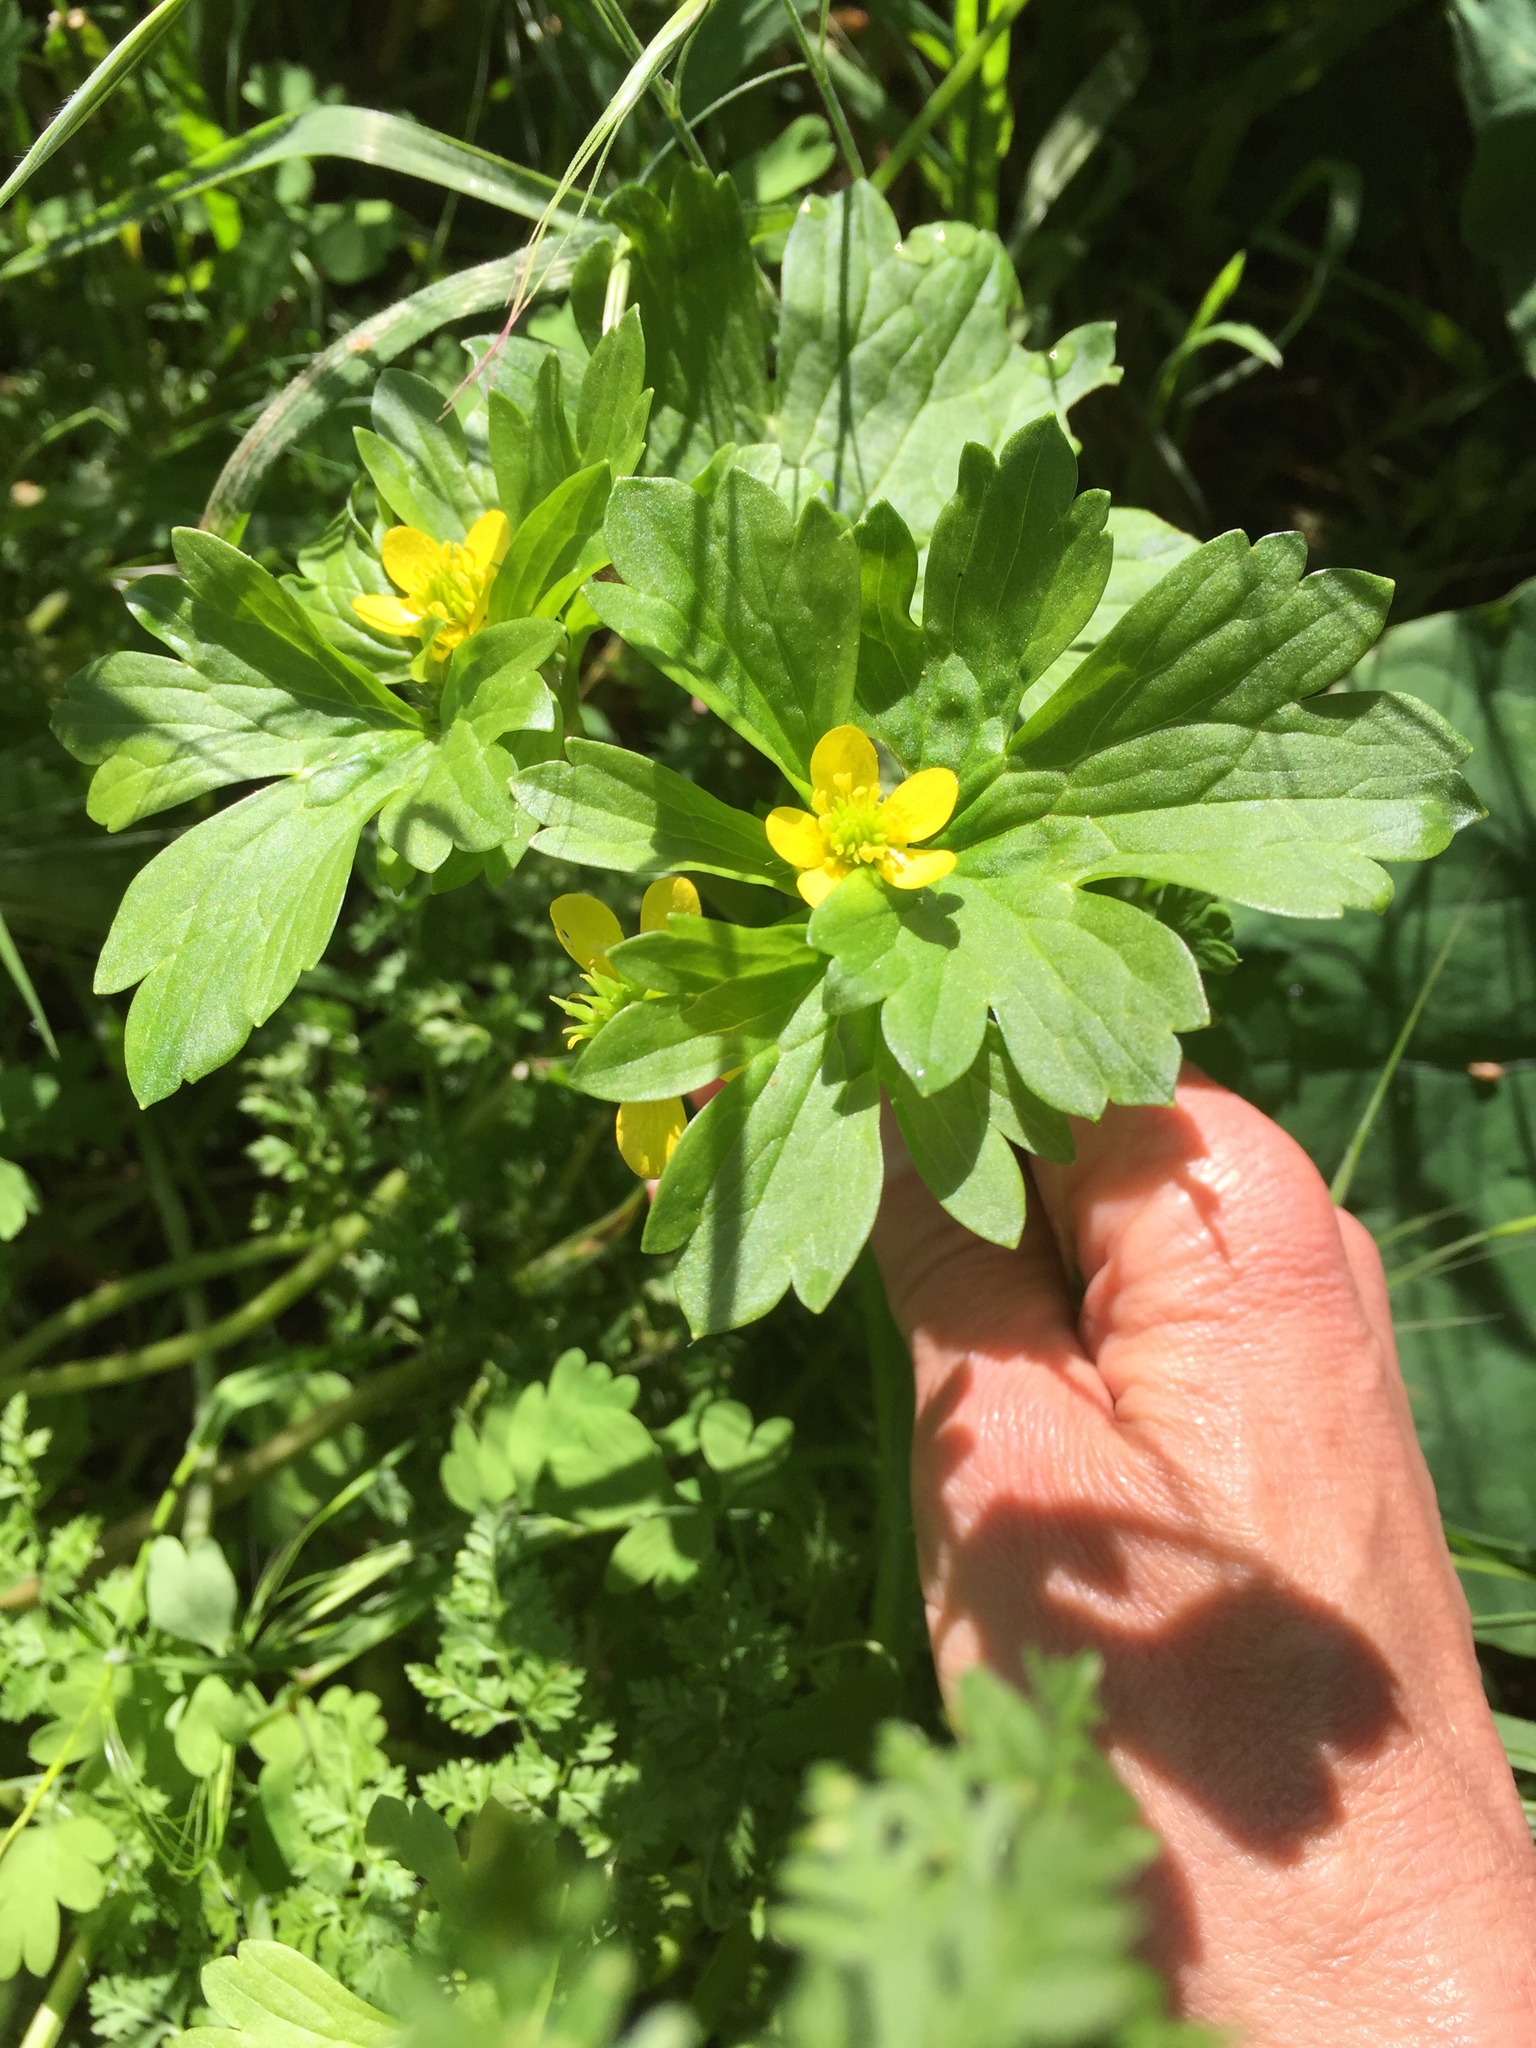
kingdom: Plantae
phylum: Tracheophyta
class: Magnoliopsida
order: Ranunculales
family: Ranunculaceae
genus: Ranunculus
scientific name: Ranunculus muricatus
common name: Rough-fruited buttercup
